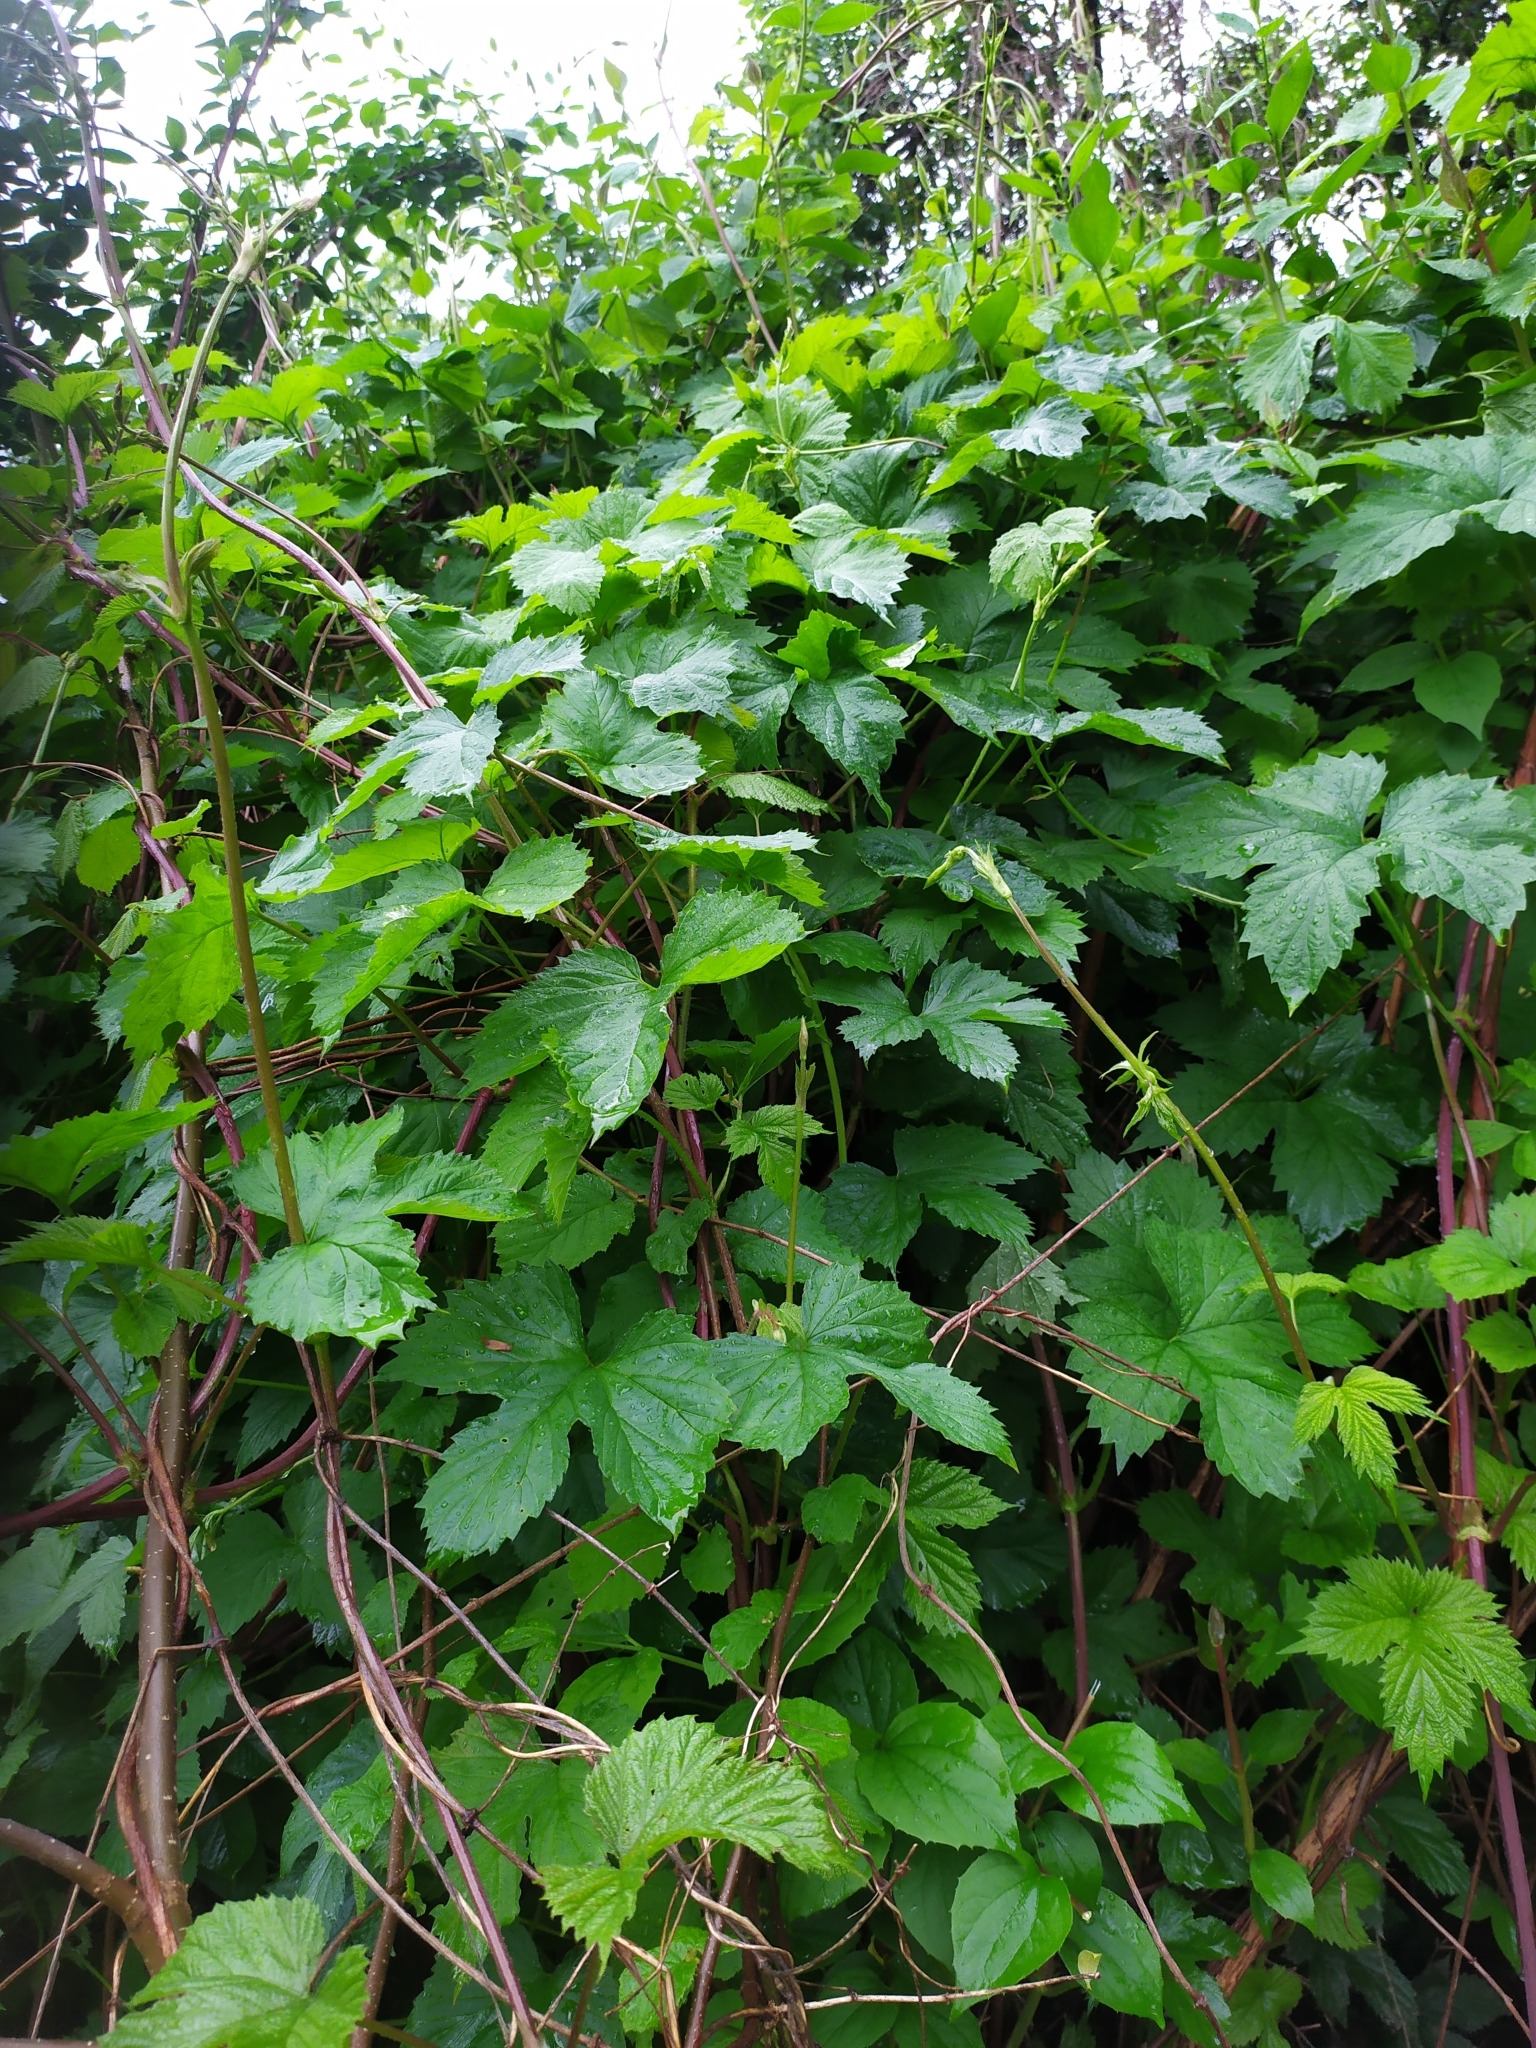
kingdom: Plantae
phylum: Tracheophyta
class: Magnoliopsida
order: Rosales
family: Cannabaceae
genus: Humulus
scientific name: Humulus lupulus
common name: Hop
